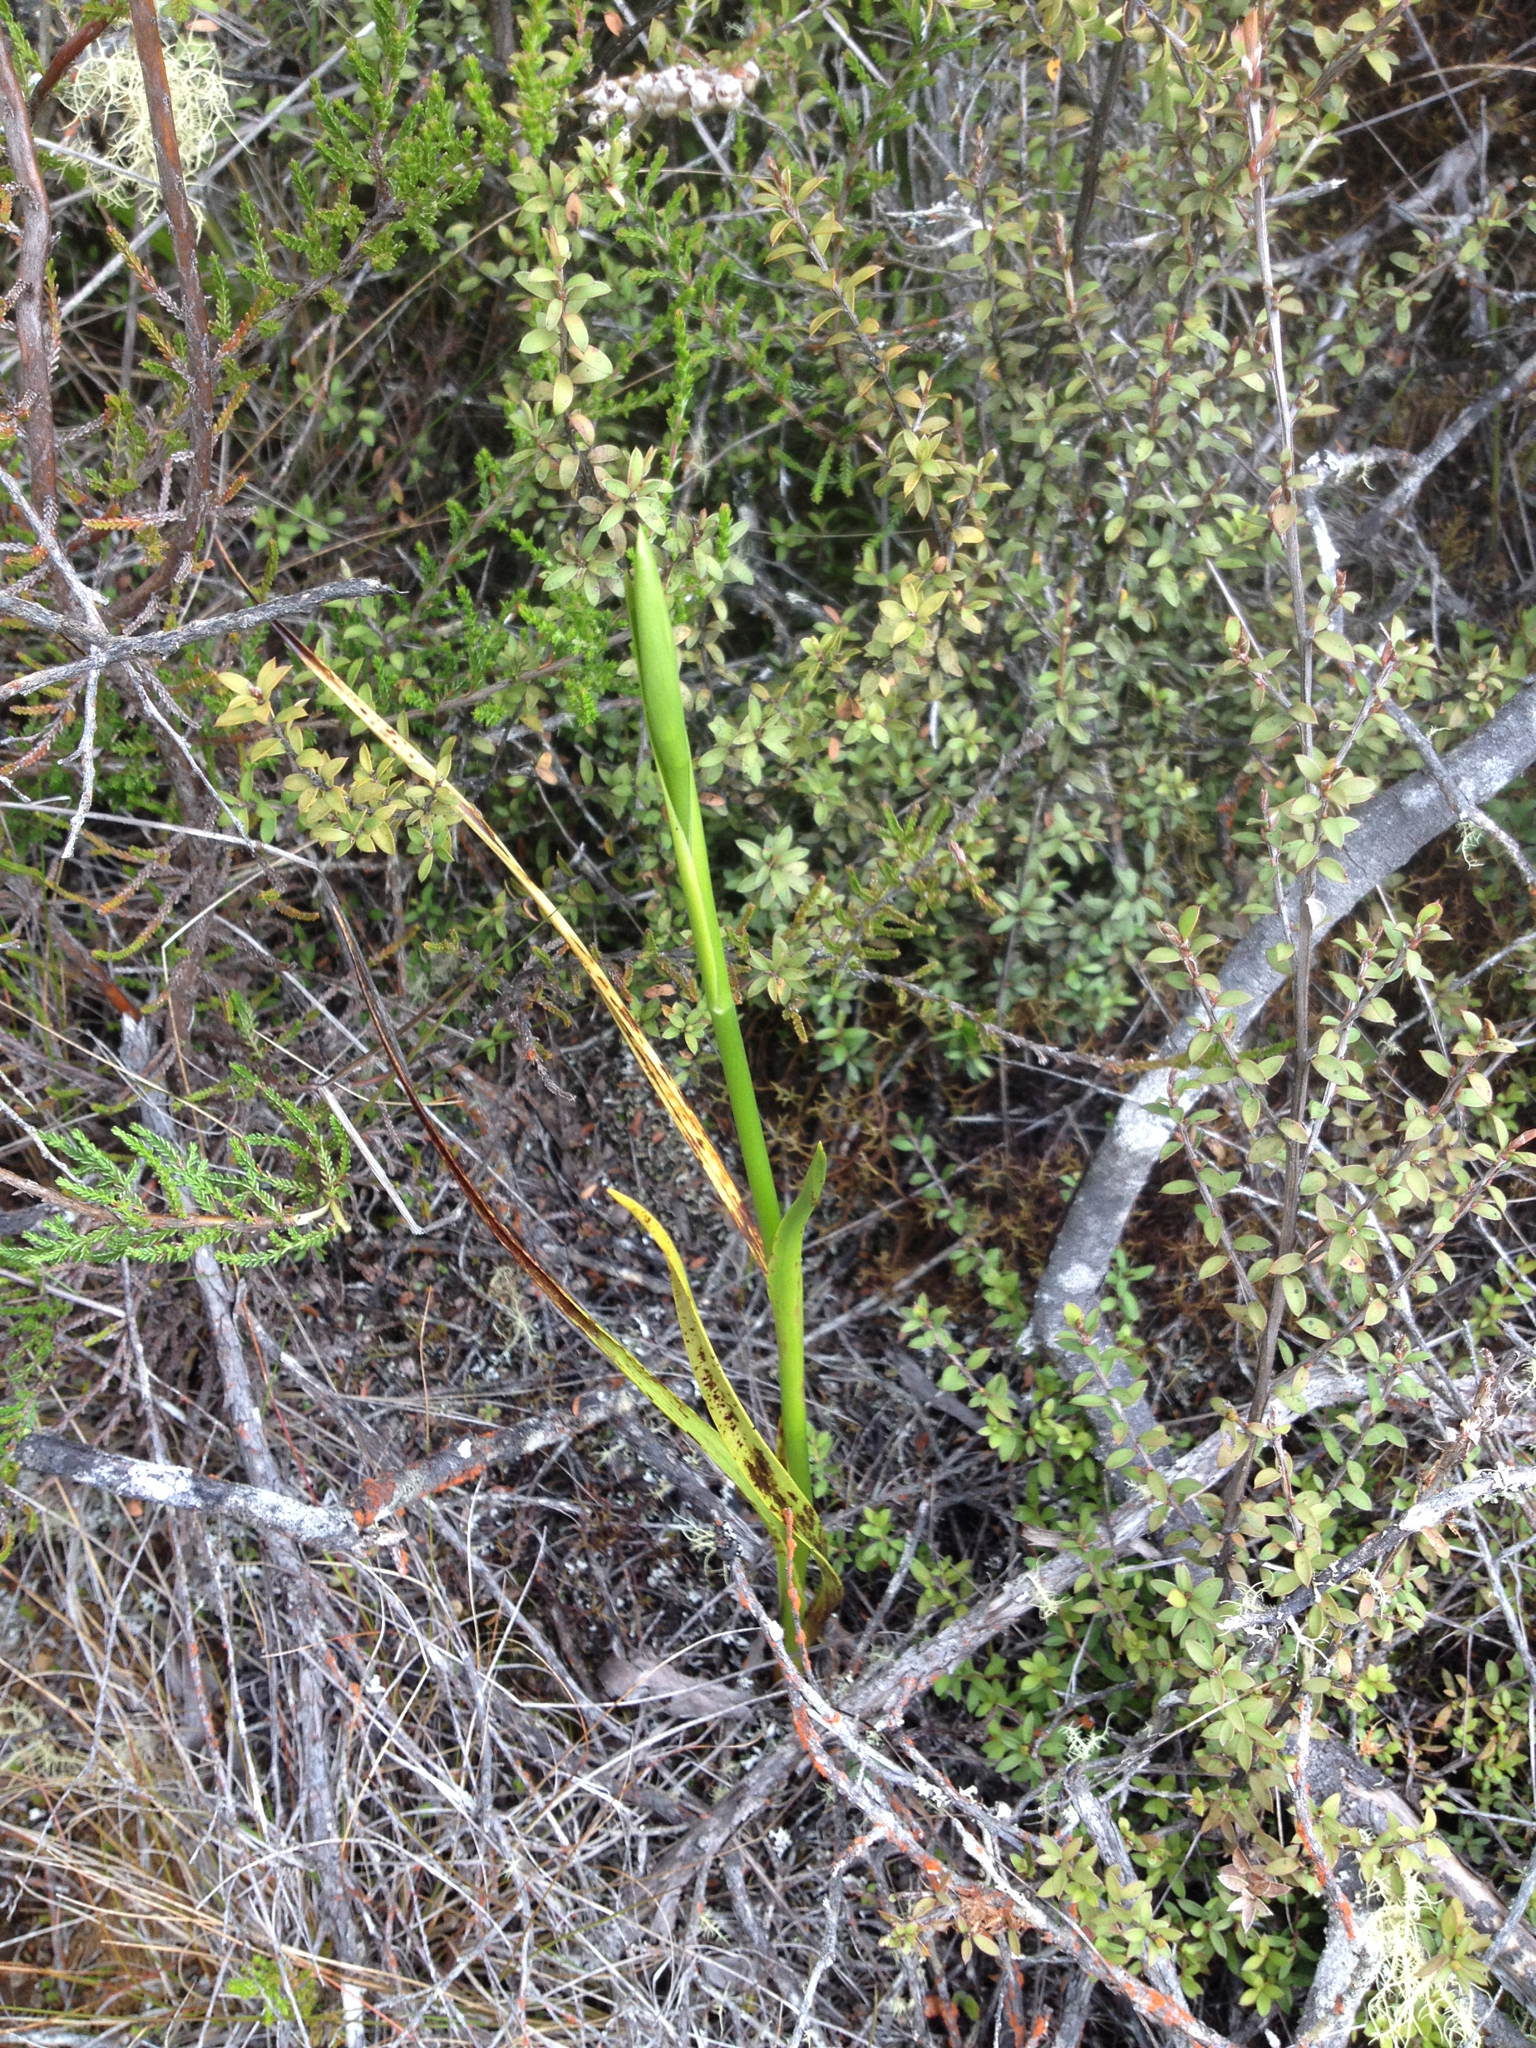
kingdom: Plantae
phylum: Tracheophyta
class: Liliopsida
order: Asparagales
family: Orchidaceae
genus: Orthoceras
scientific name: Orthoceras novae-zeelandiae
